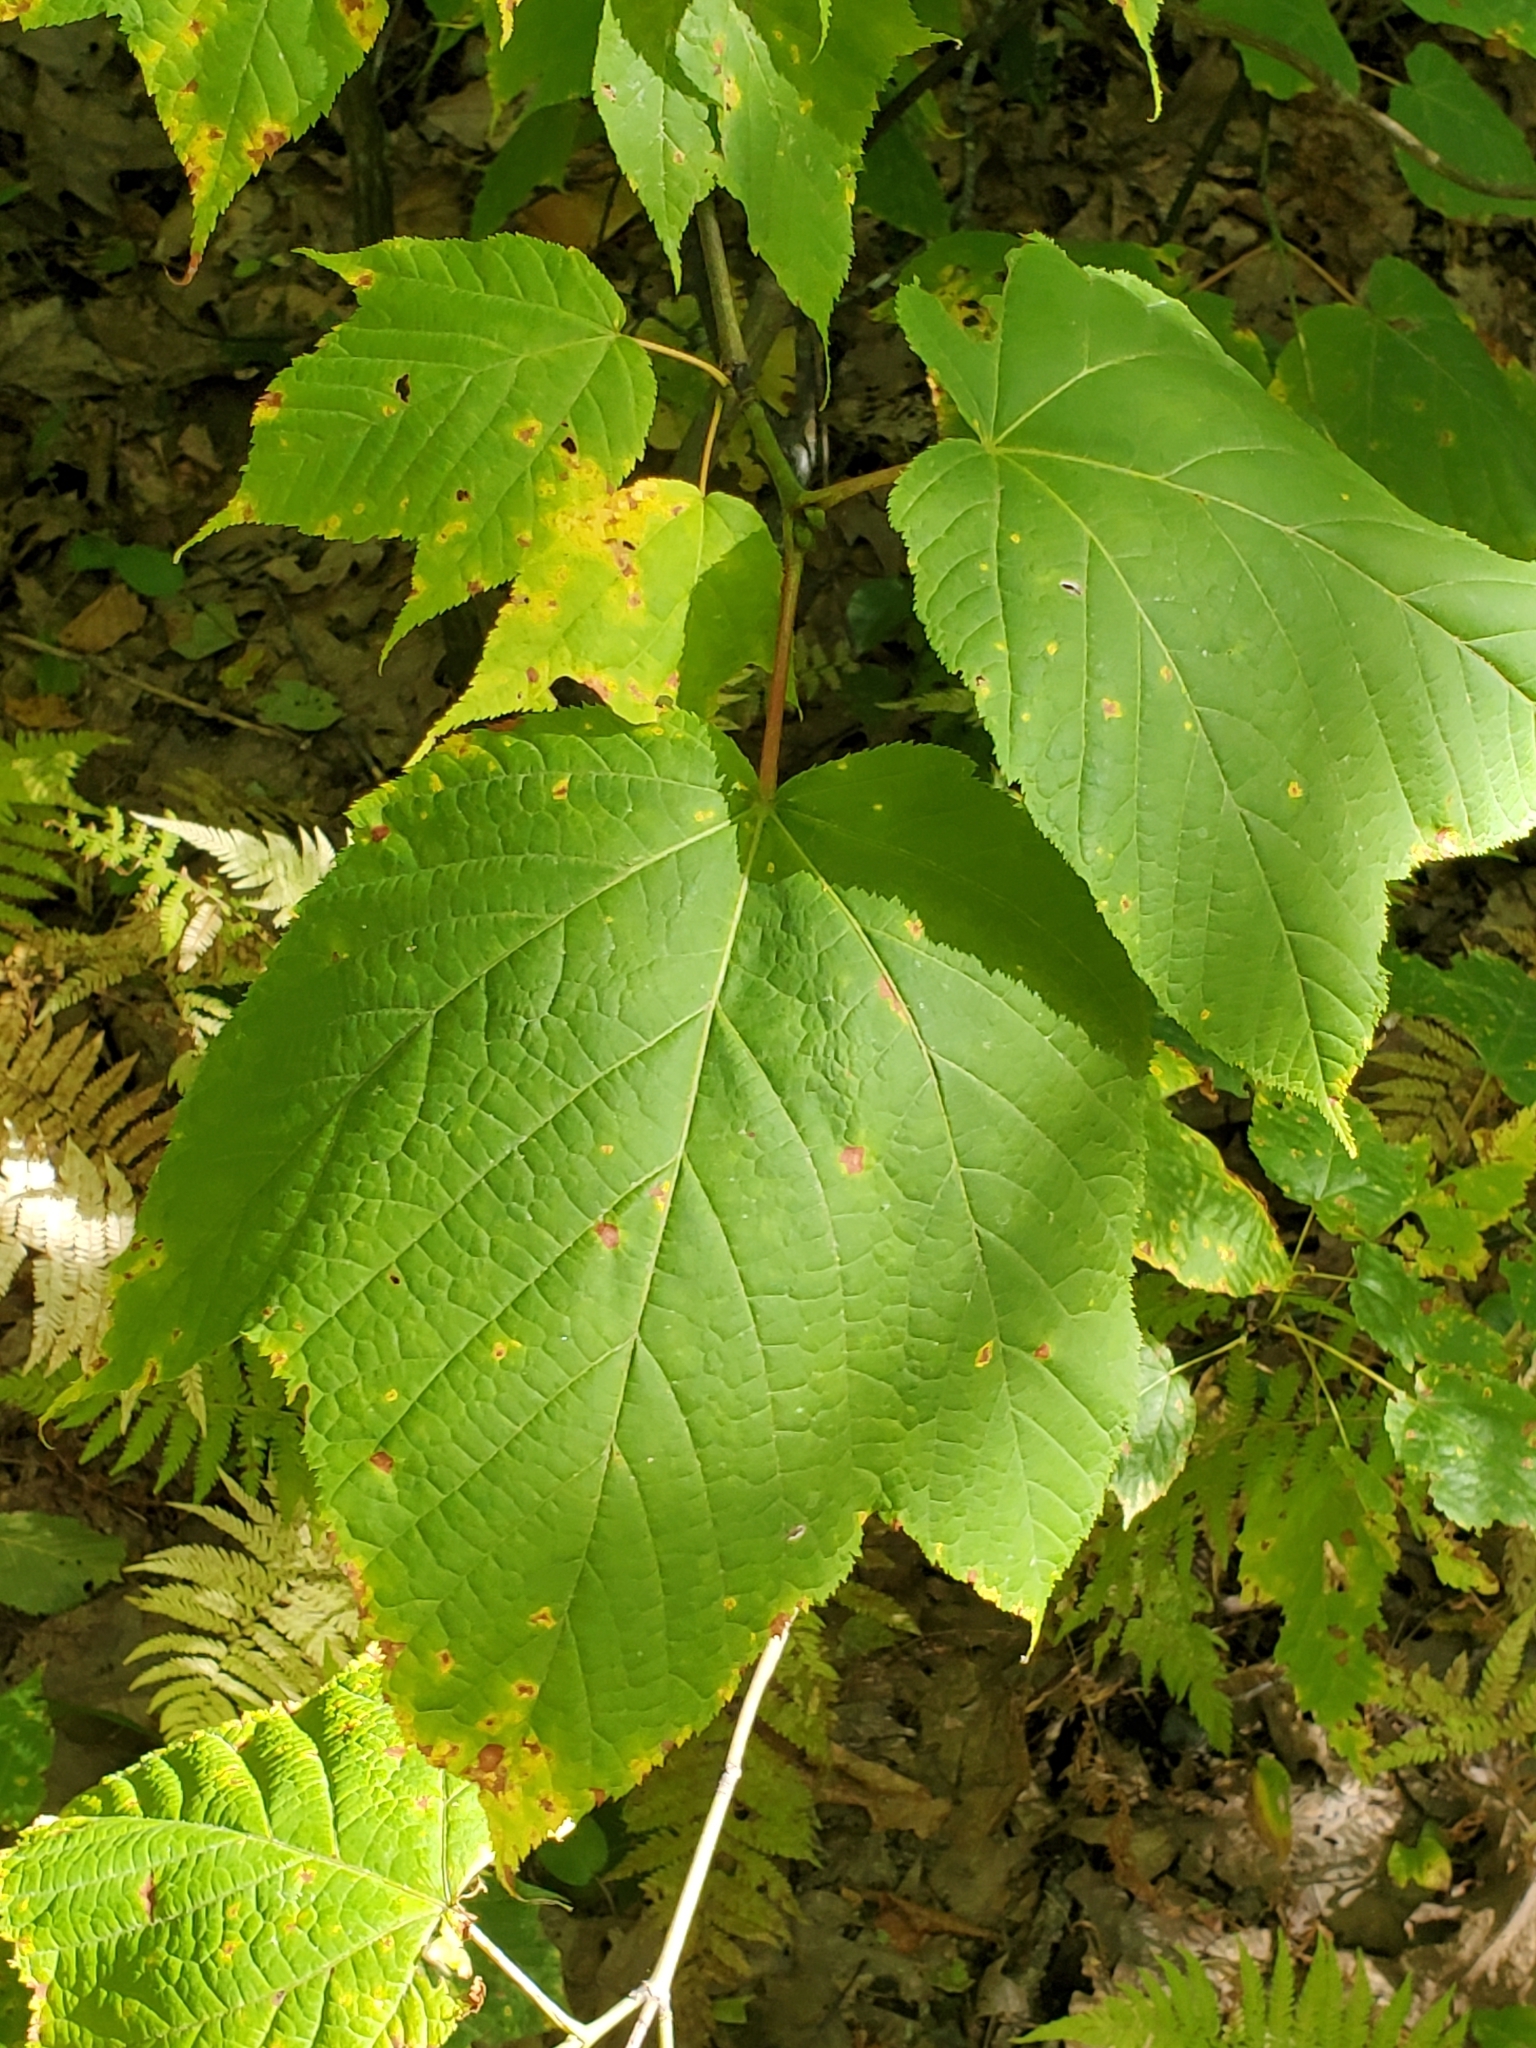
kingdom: Plantae
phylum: Tracheophyta
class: Magnoliopsida
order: Sapindales
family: Sapindaceae
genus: Acer
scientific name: Acer pensylvanicum
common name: Moosewood
